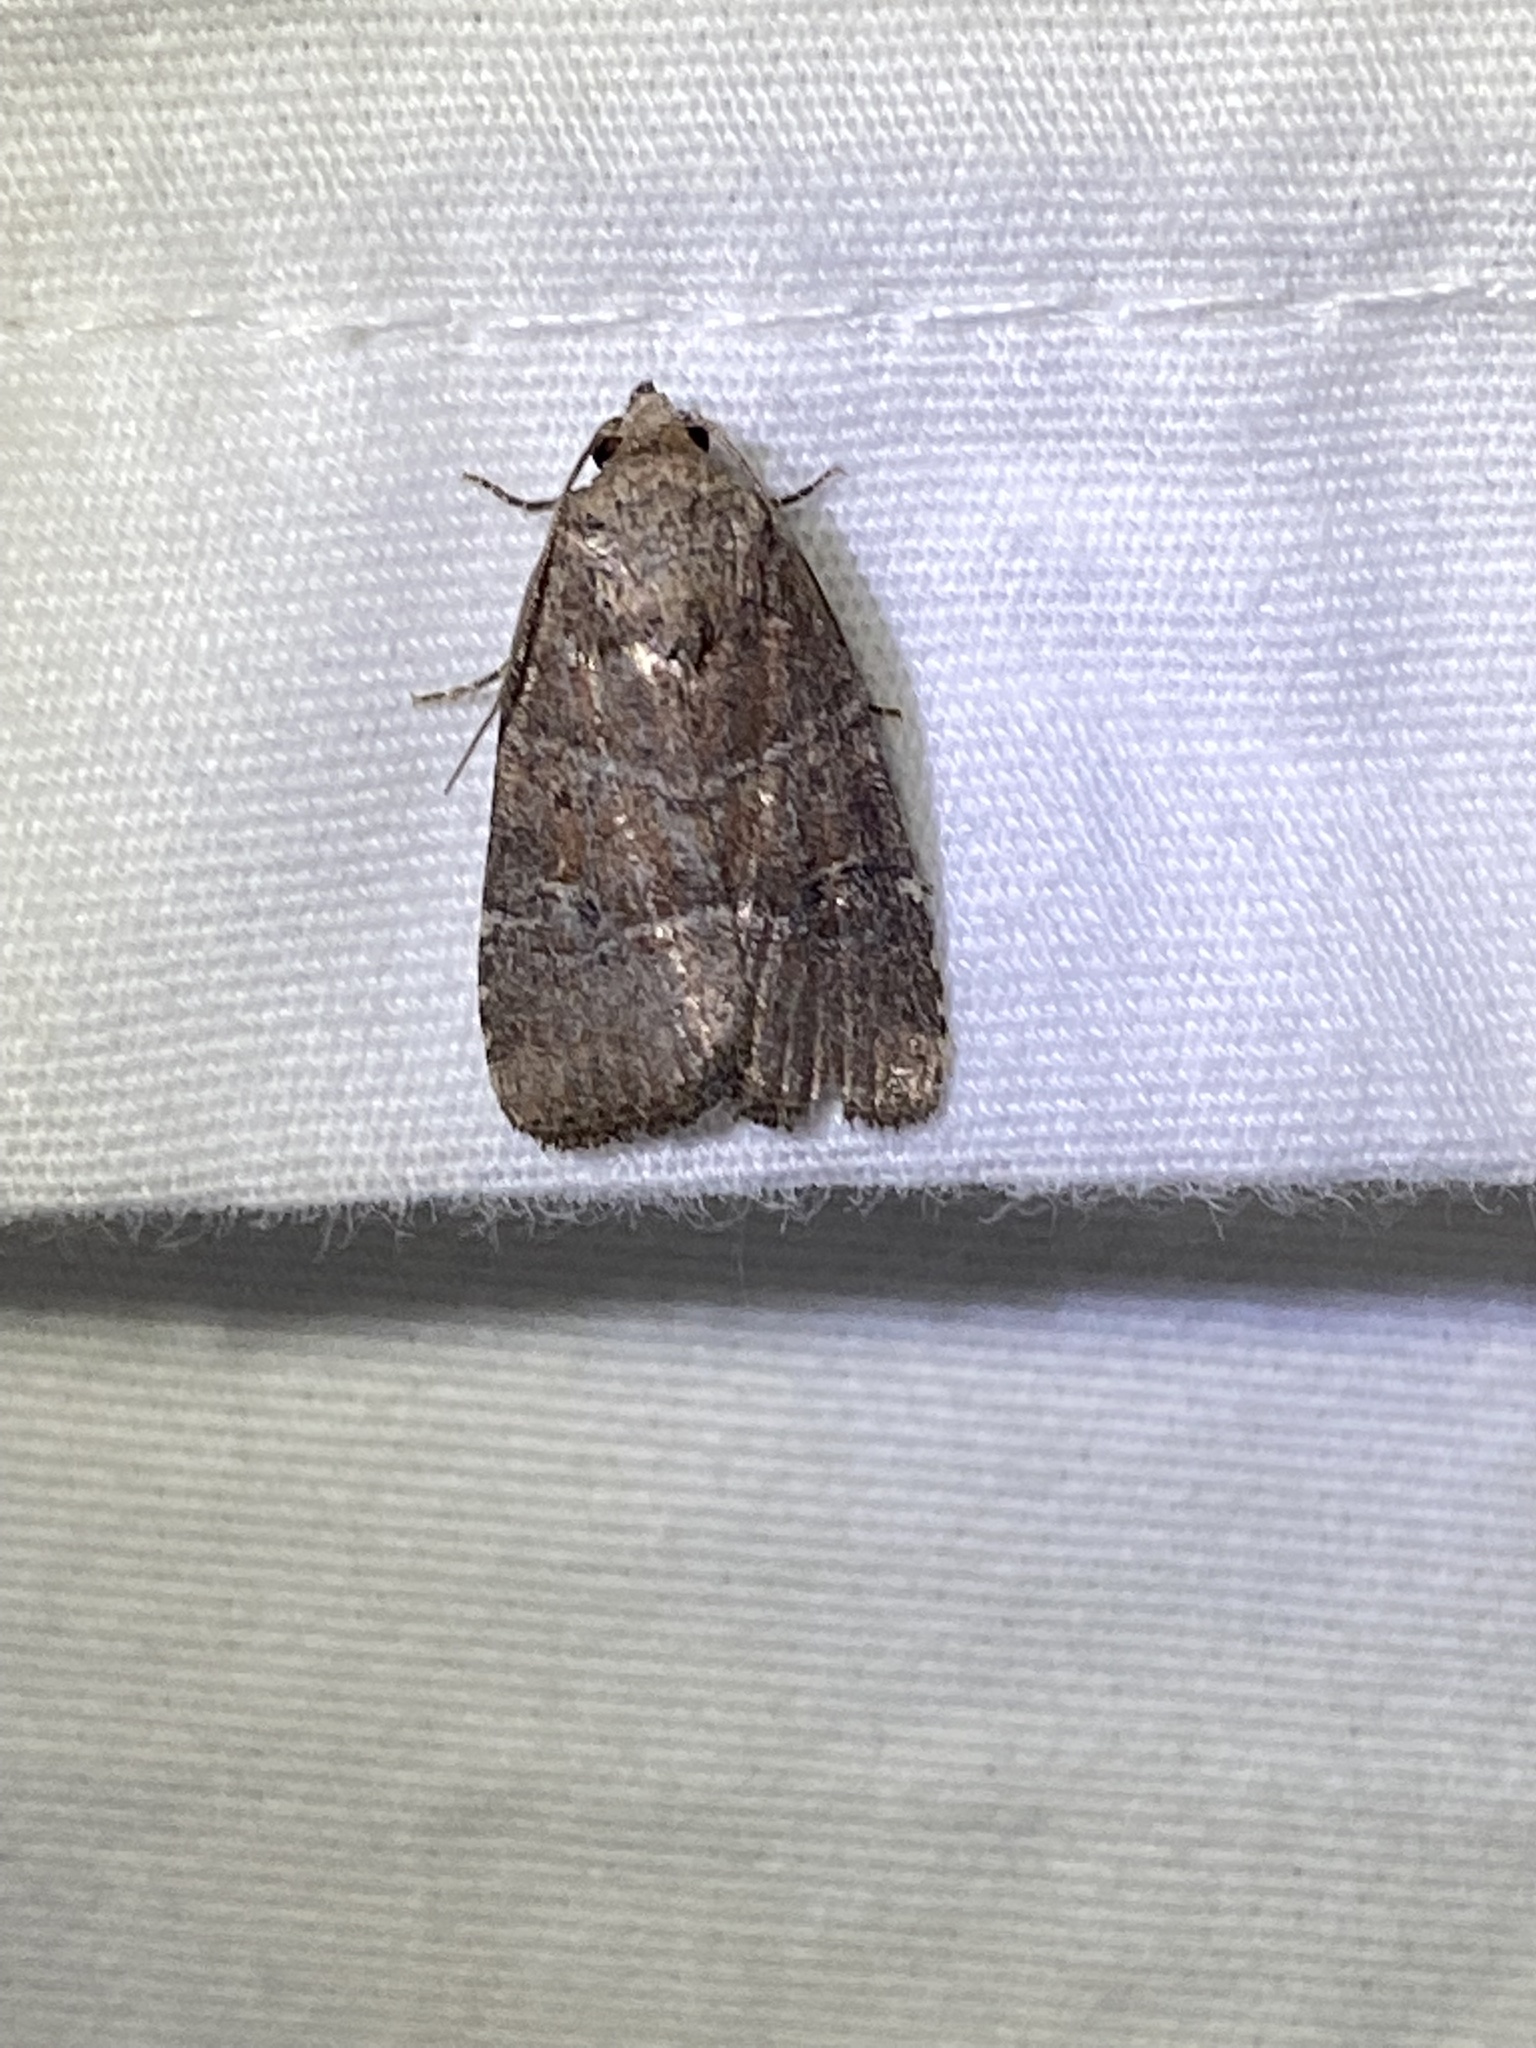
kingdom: Animalia
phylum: Arthropoda
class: Insecta
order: Lepidoptera
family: Noctuidae
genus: Elaphria
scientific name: Elaphria grata
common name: Grateful midget moth
